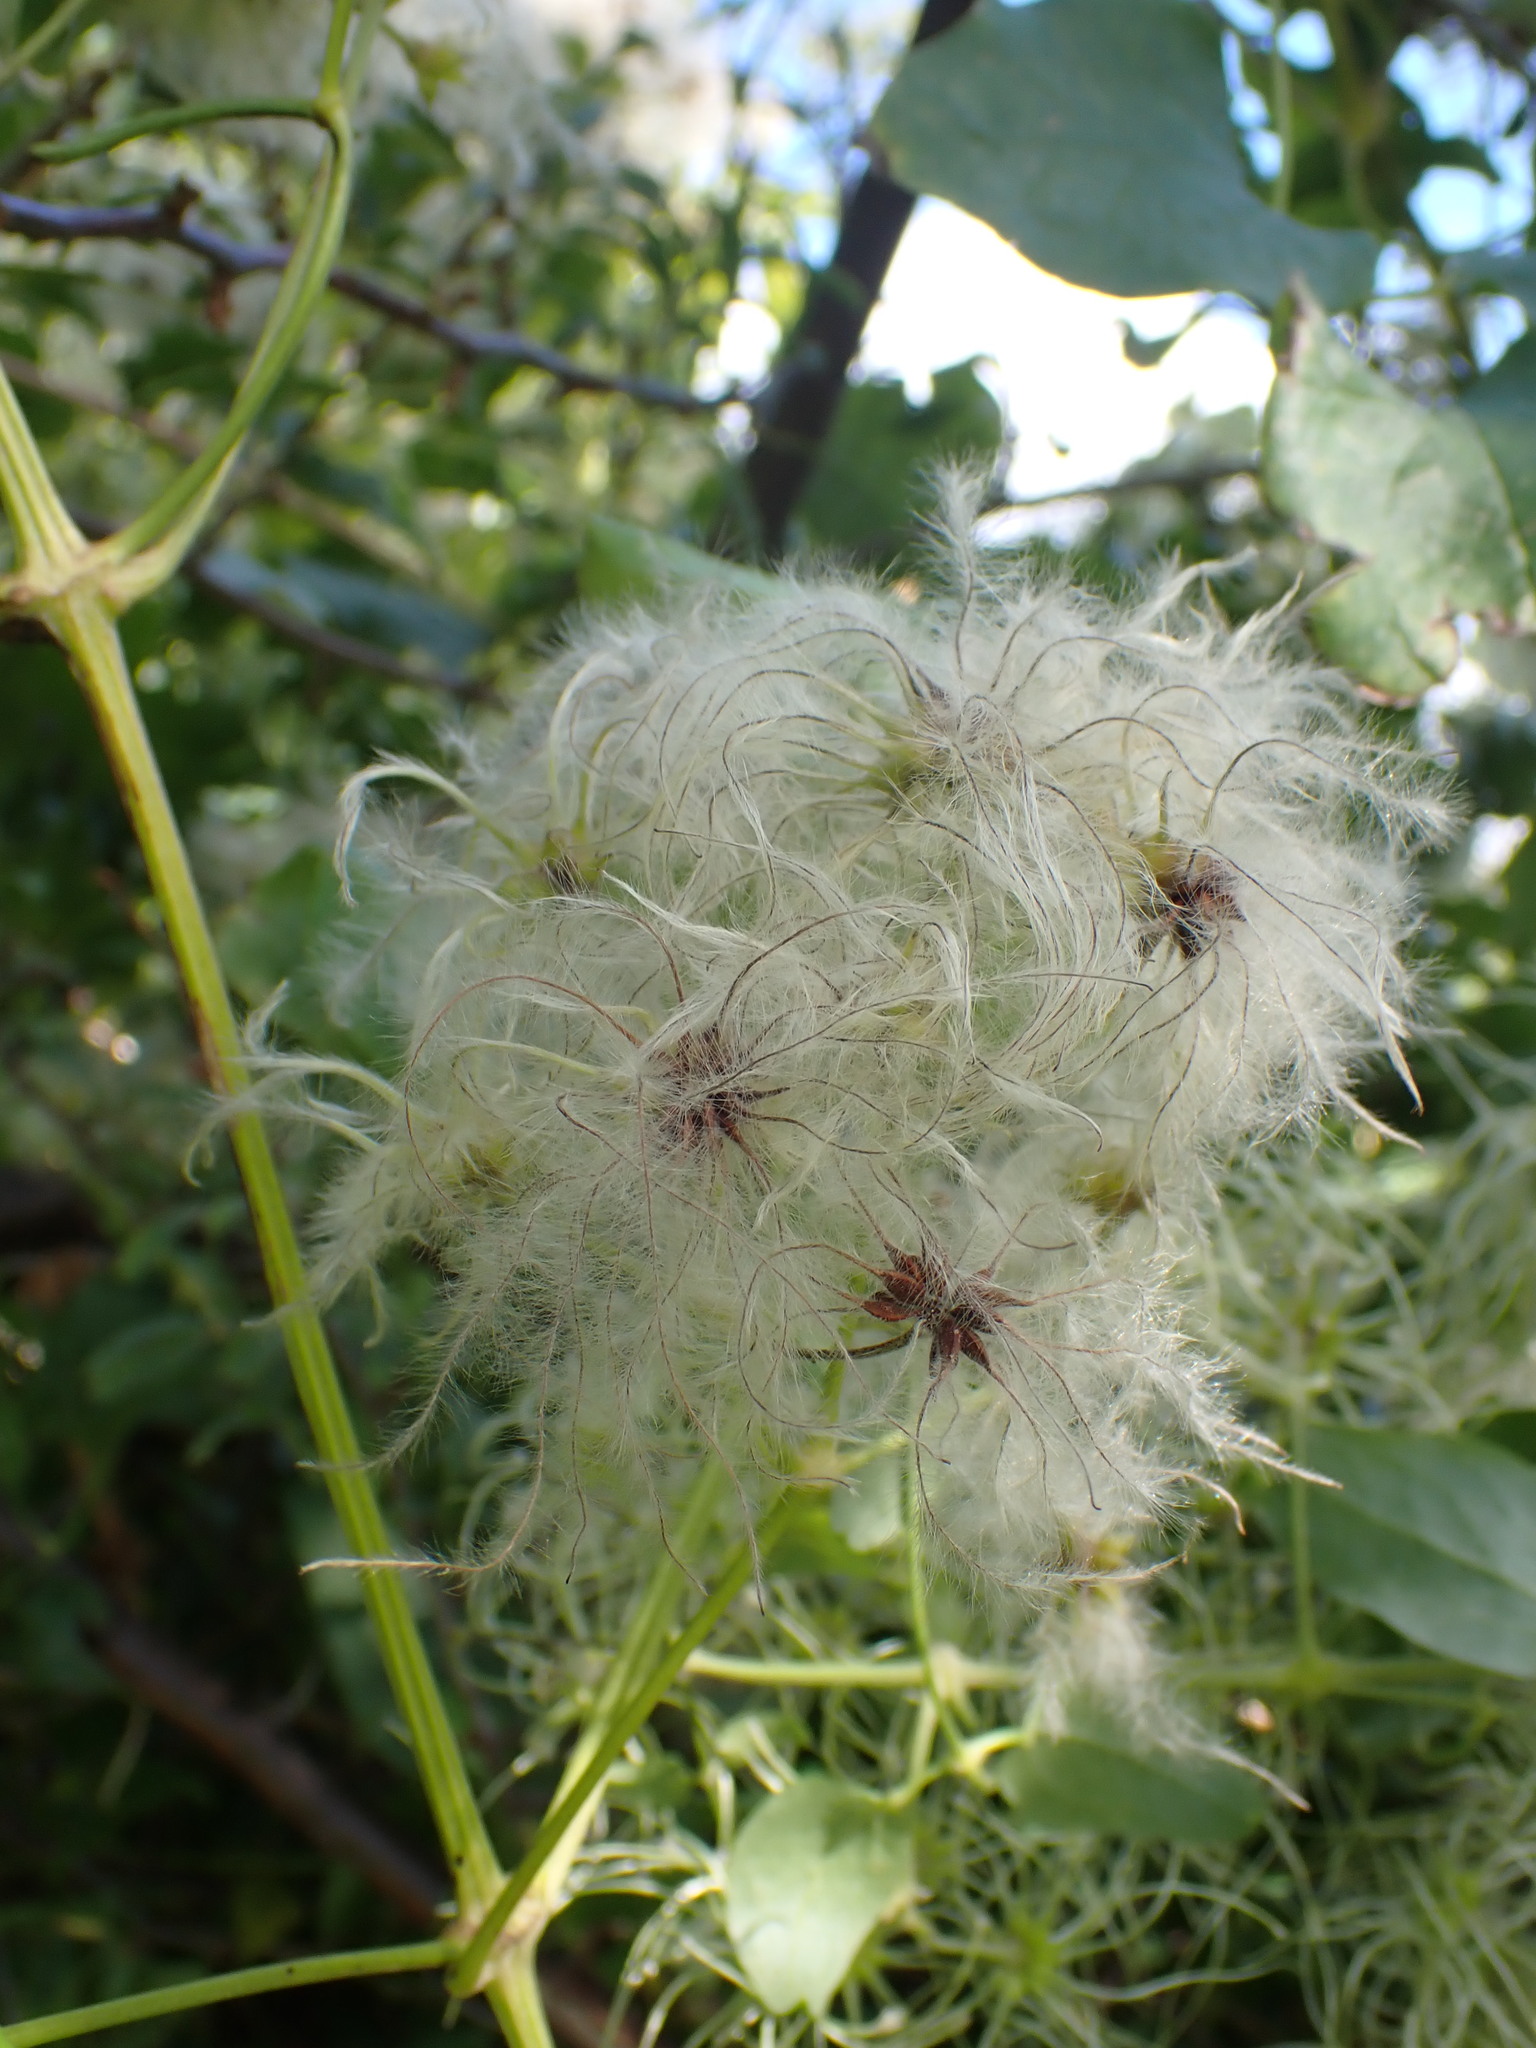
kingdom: Plantae
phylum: Tracheophyta
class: Magnoliopsida
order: Ranunculales
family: Ranunculaceae
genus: Clematis
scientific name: Clematis vitalba
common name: Evergreen clematis
